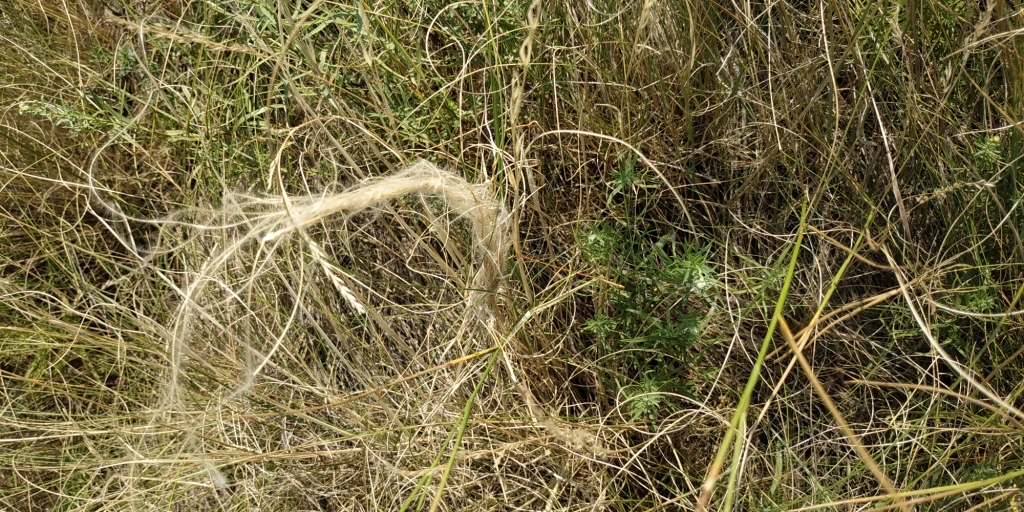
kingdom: Plantae
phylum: Tracheophyta
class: Liliopsida
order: Poales
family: Poaceae
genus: Stipa
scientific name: Stipa pennata
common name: European feather grass
